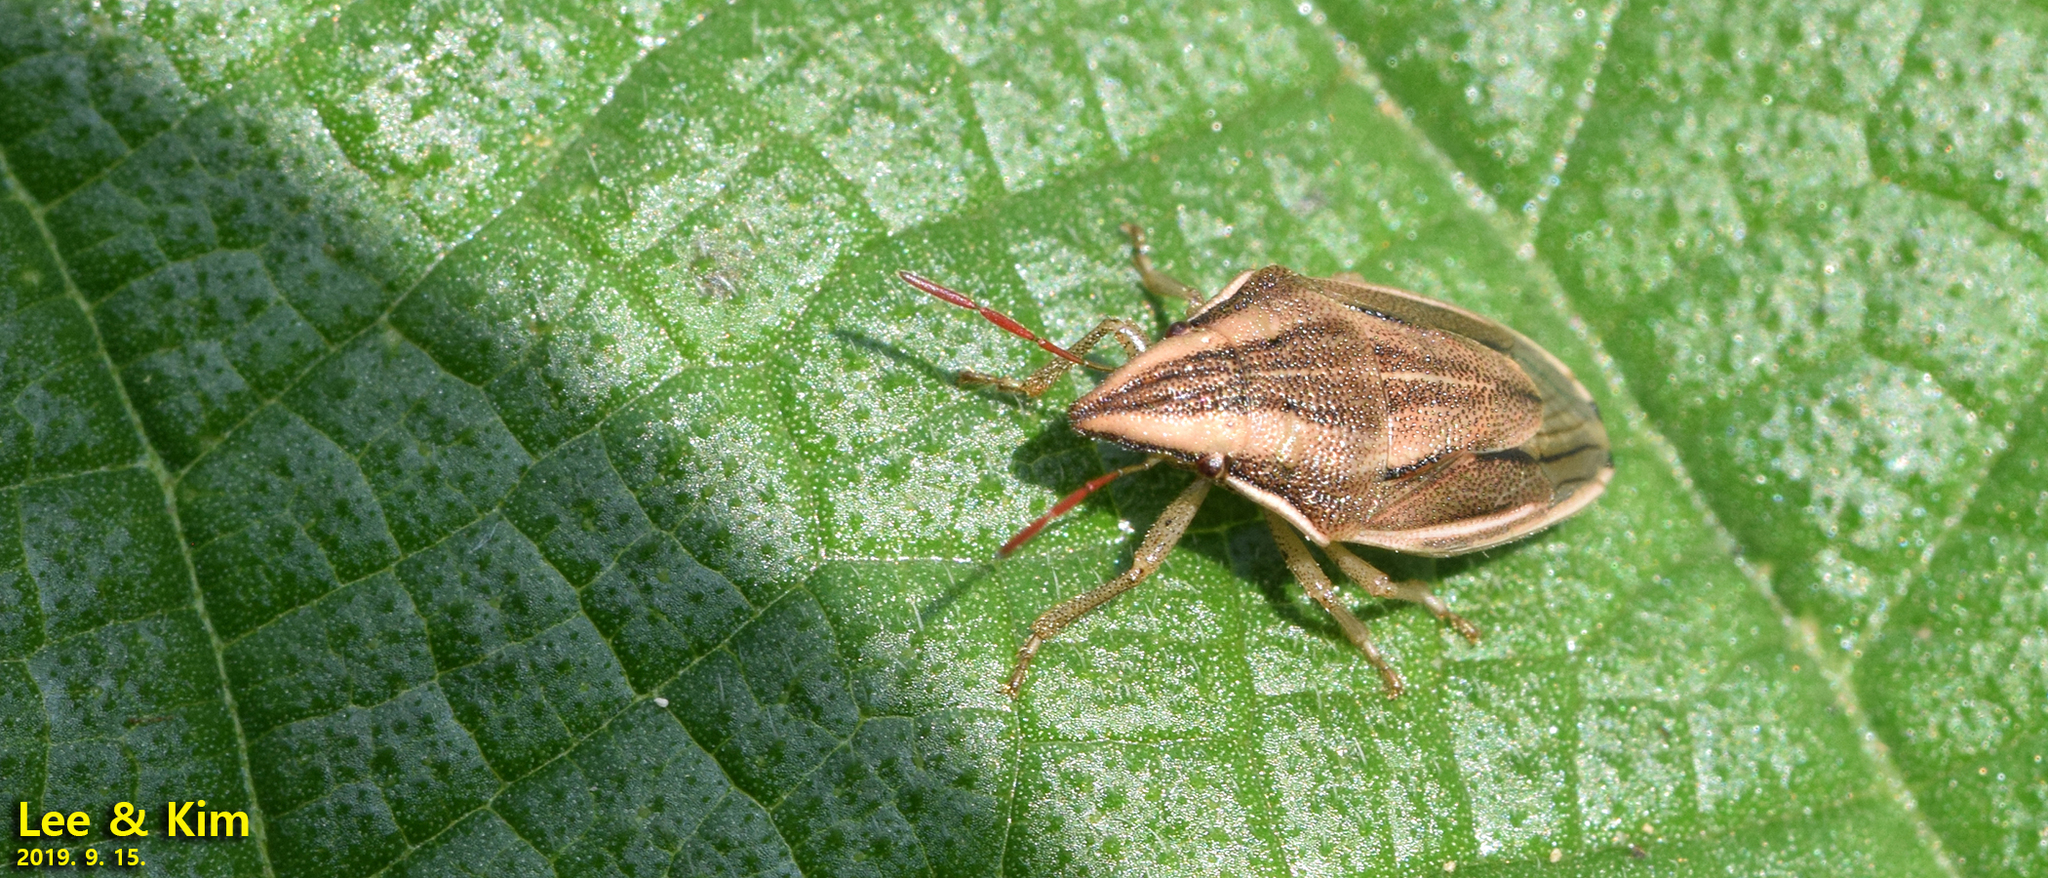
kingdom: Animalia
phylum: Arthropoda
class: Insecta
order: Hemiptera
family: Pentatomidae
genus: Aelia
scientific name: Aelia
